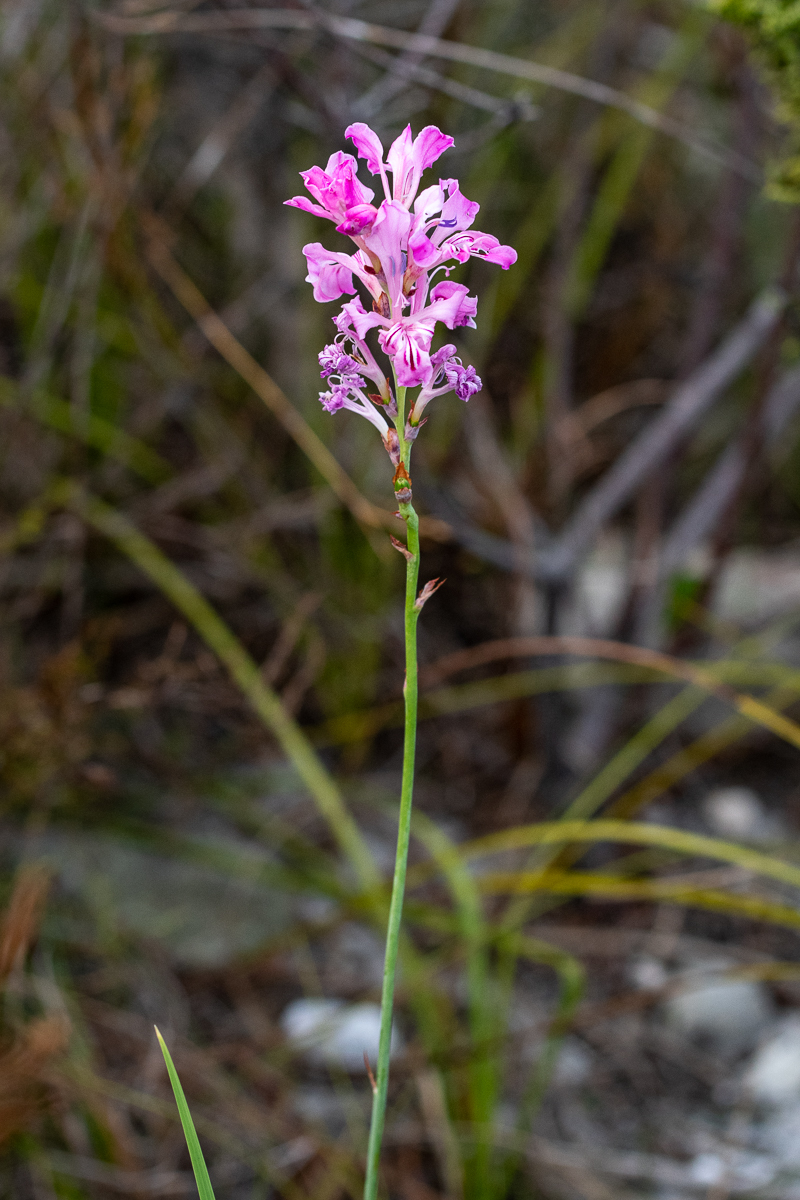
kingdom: Plantae
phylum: Tracheophyta
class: Liliopsida
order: Asparagales
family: Iridaceae
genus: Tritoniopsis
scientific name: Tritoniopsis lata
